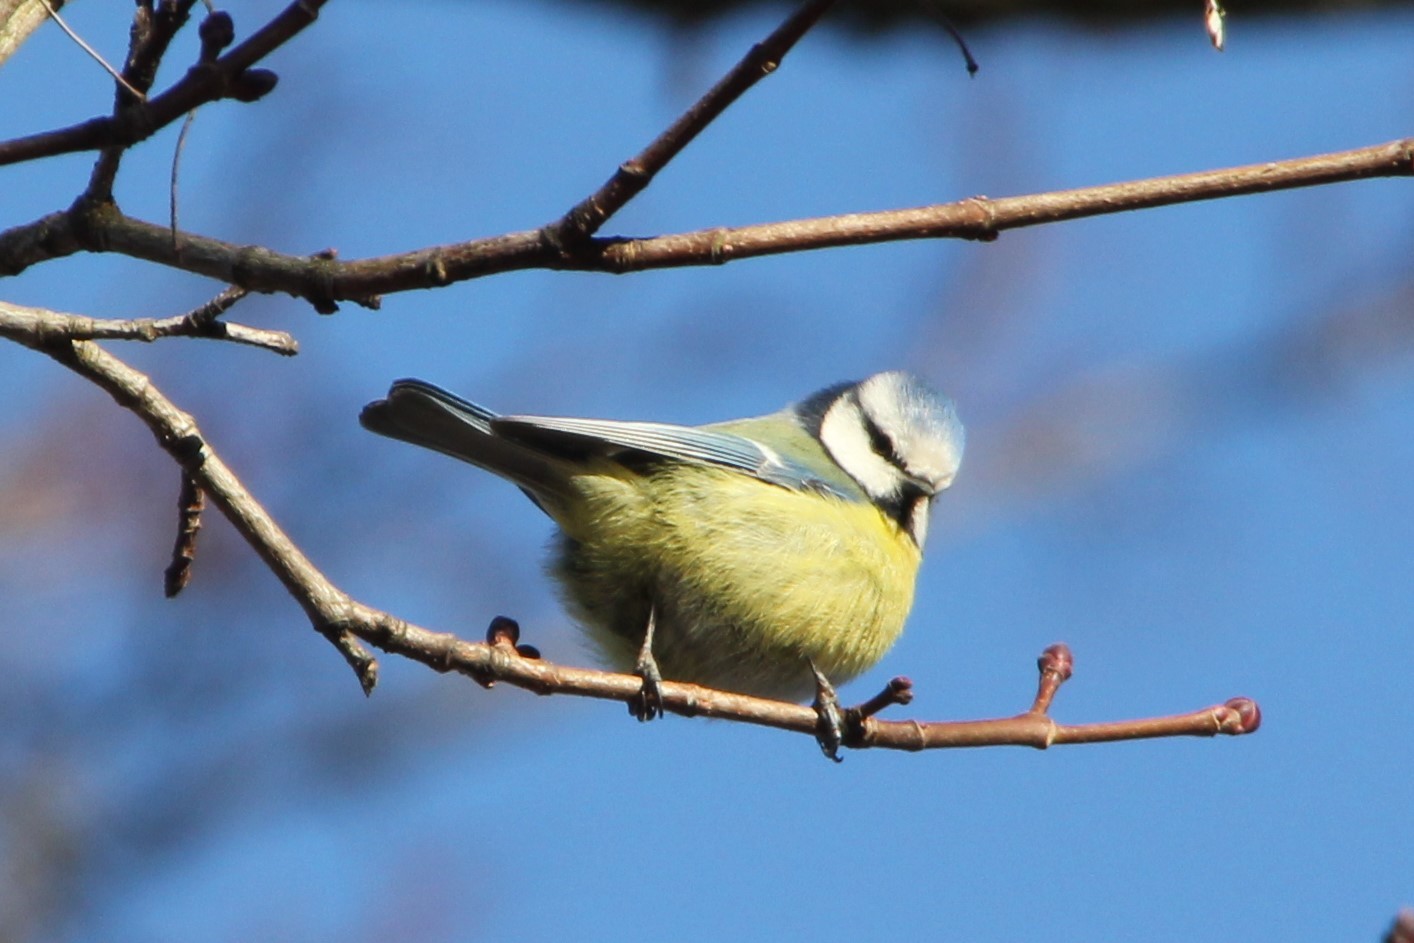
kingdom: Animalia
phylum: Chordata
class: Aves
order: Passeriformes
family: Paridae
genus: Cyanistes
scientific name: Cyanistes caeruleus
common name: Eurasian blue tit
